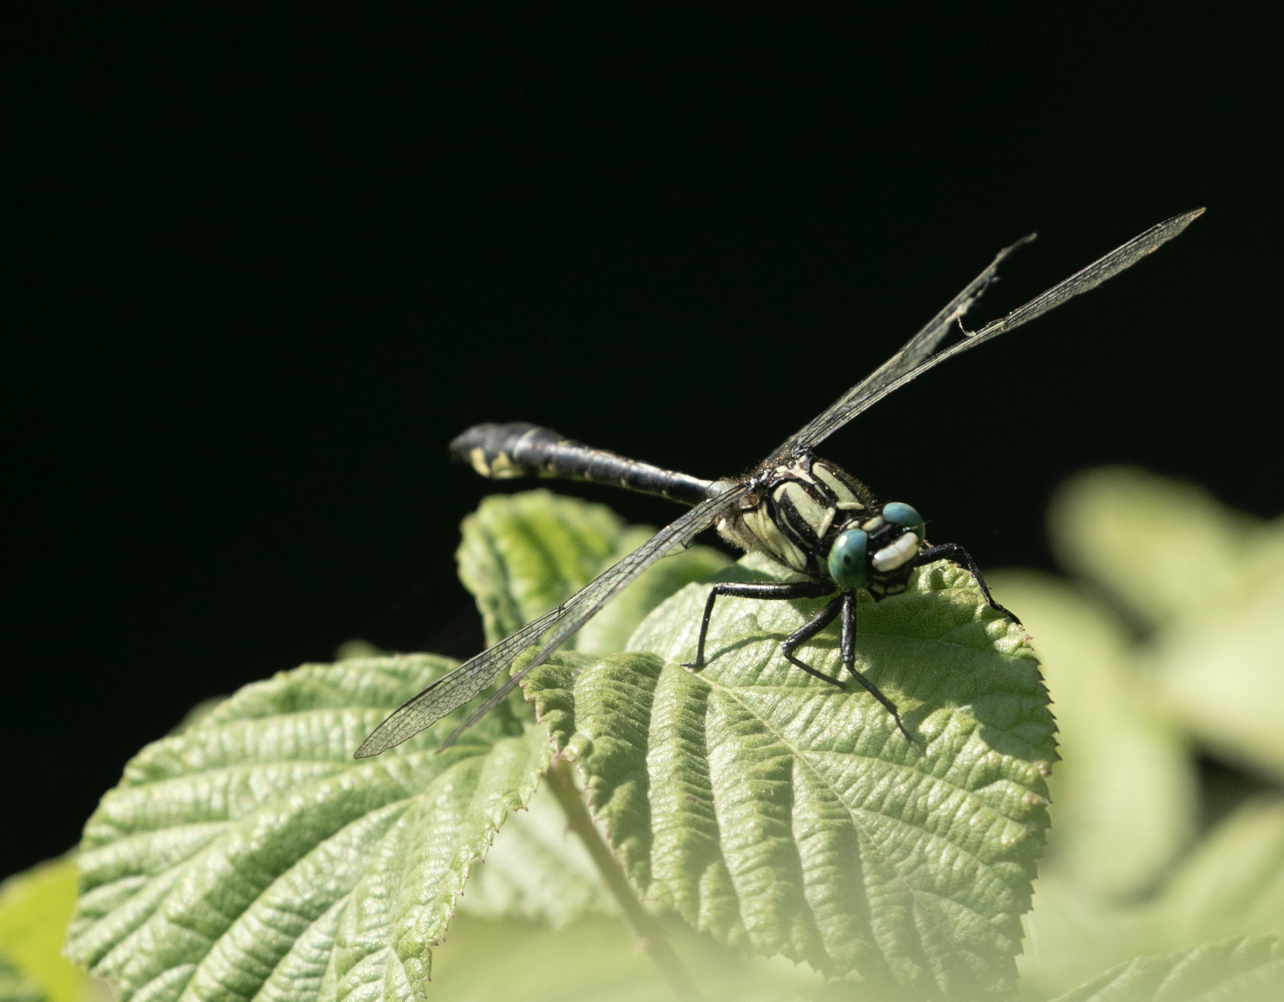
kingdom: Animalia
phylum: Arthropoda
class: Insecta
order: Odonata
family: Gomphidae
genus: Gomphus
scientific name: Gomphus vulgatissimus
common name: Club-tailed dragonfly
